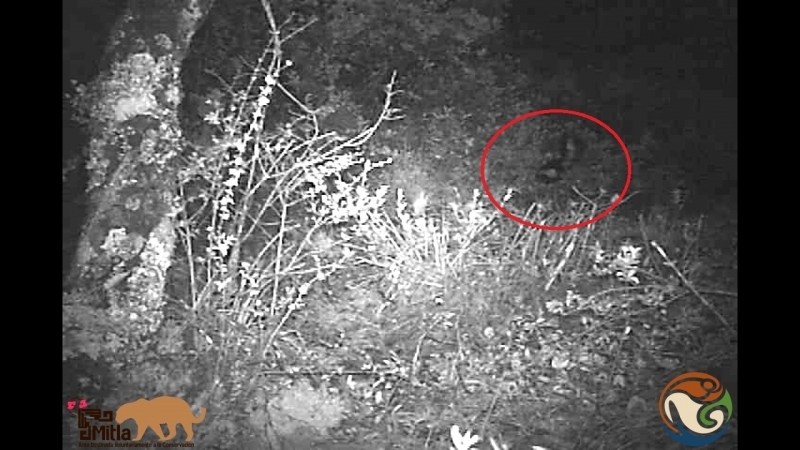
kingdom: Animalia
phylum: Chordata
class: Mammalia
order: Carnivora
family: Mephitidae
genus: Mephitis
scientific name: Mephitis macroura
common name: Hooded skunk
